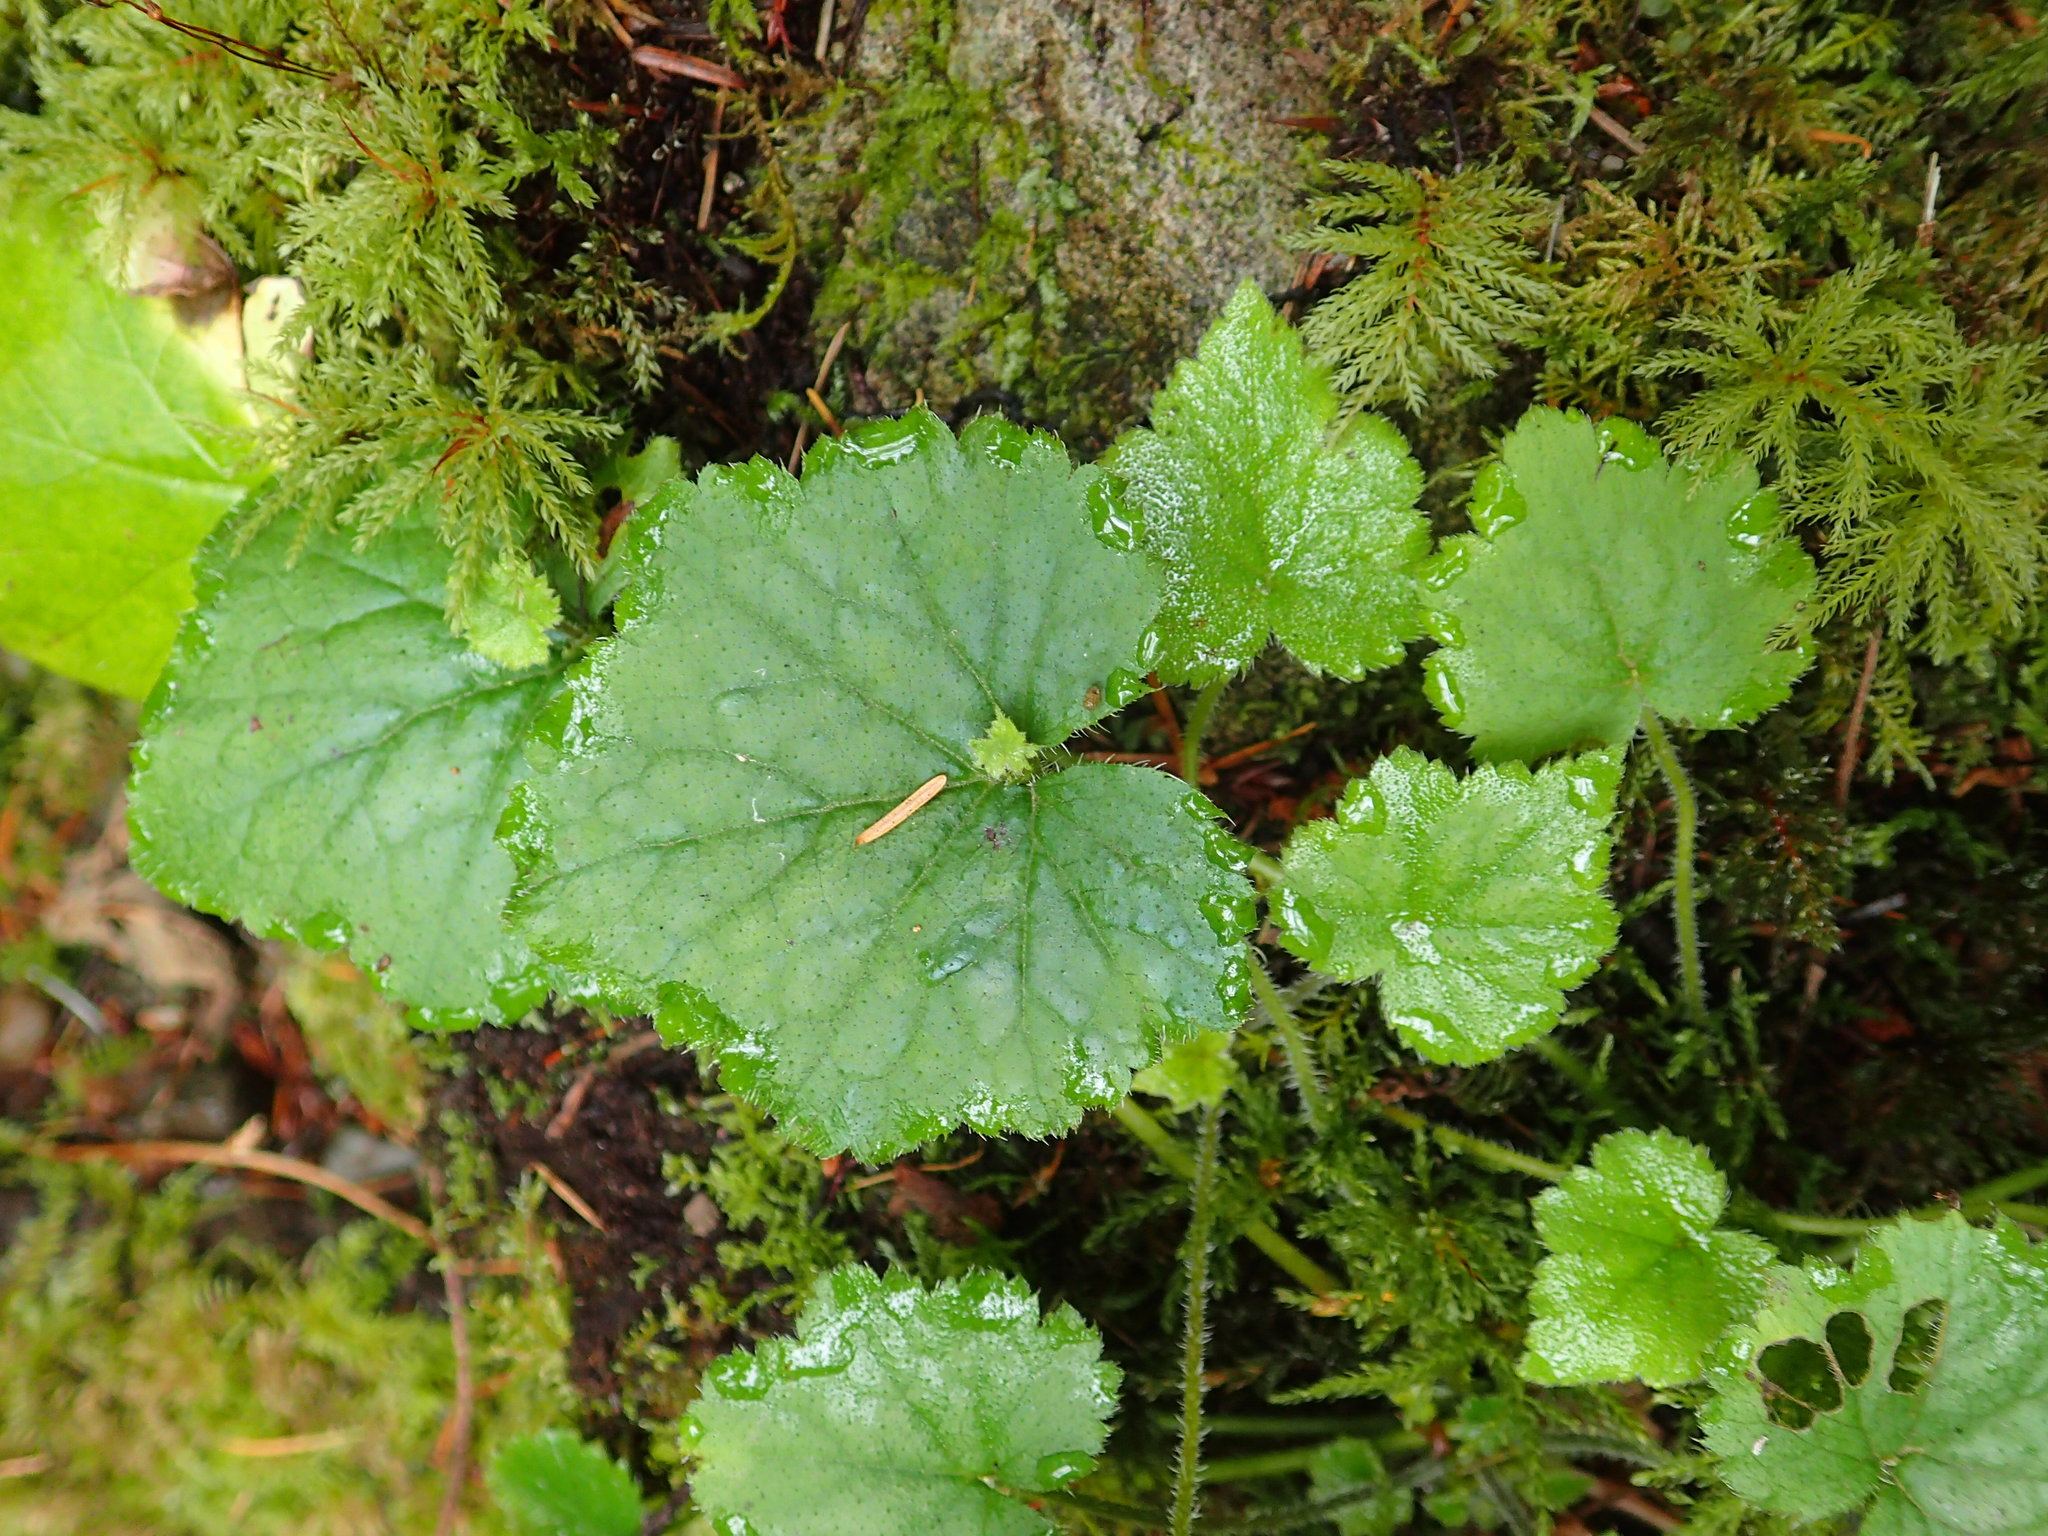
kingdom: Plantae
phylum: Tracheophyta
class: Magnoliopsida
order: Saxifragales
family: Saxifragaceae
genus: Tolmiea
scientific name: Tolmiea menziesii
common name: Pick-a-back-plant
